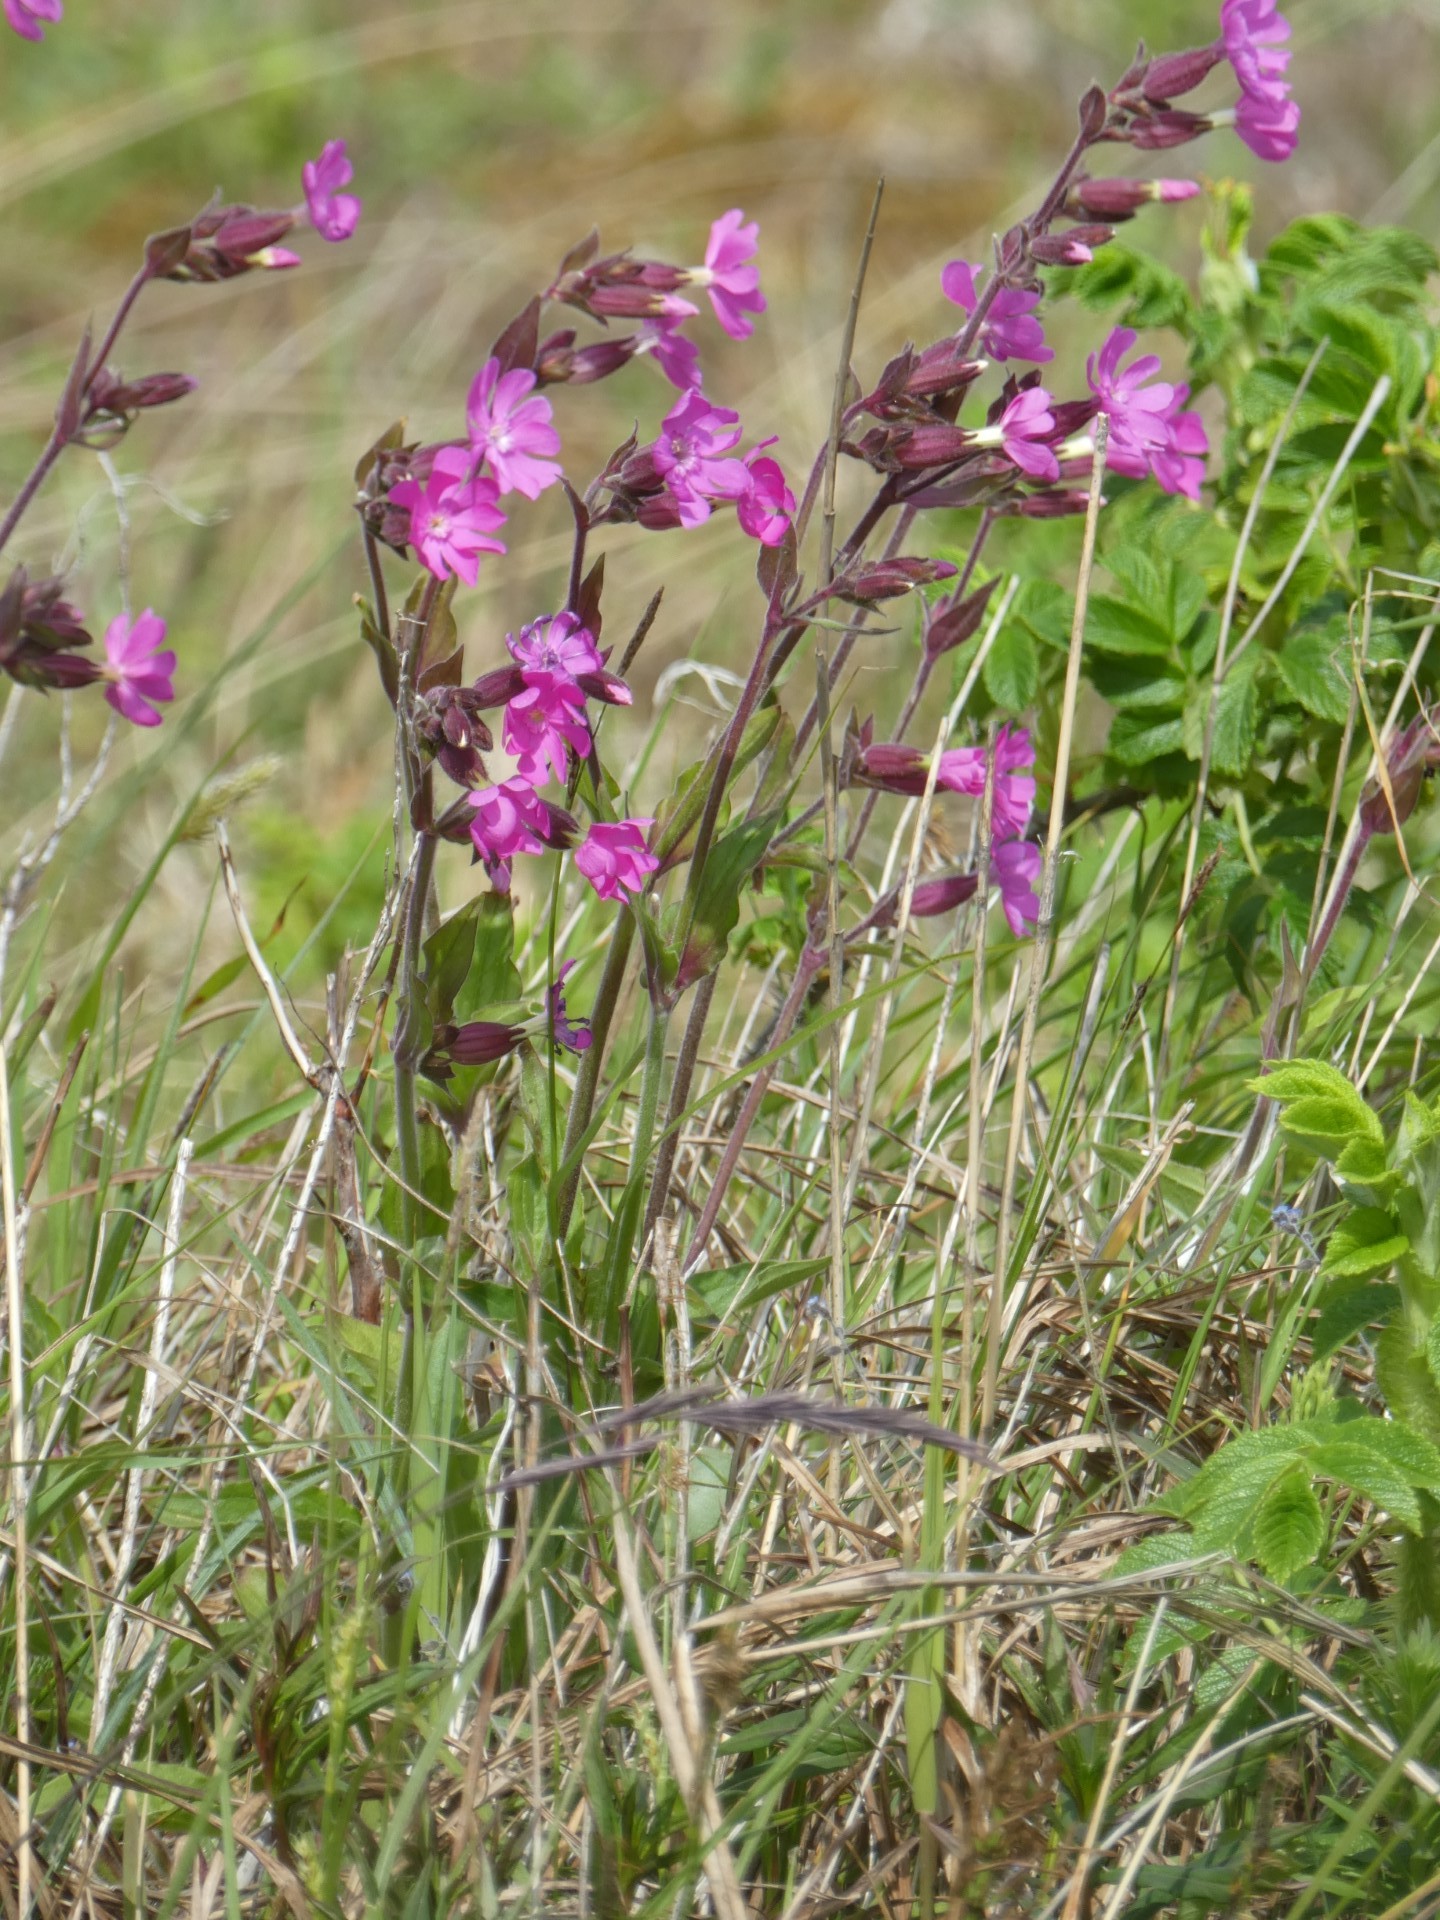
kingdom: Plantae
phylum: Tracheophyta
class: Magnoliopsida
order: Caryophyllales
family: Caryophyllaceae
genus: Silene
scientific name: Silene dioica
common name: Red campion
